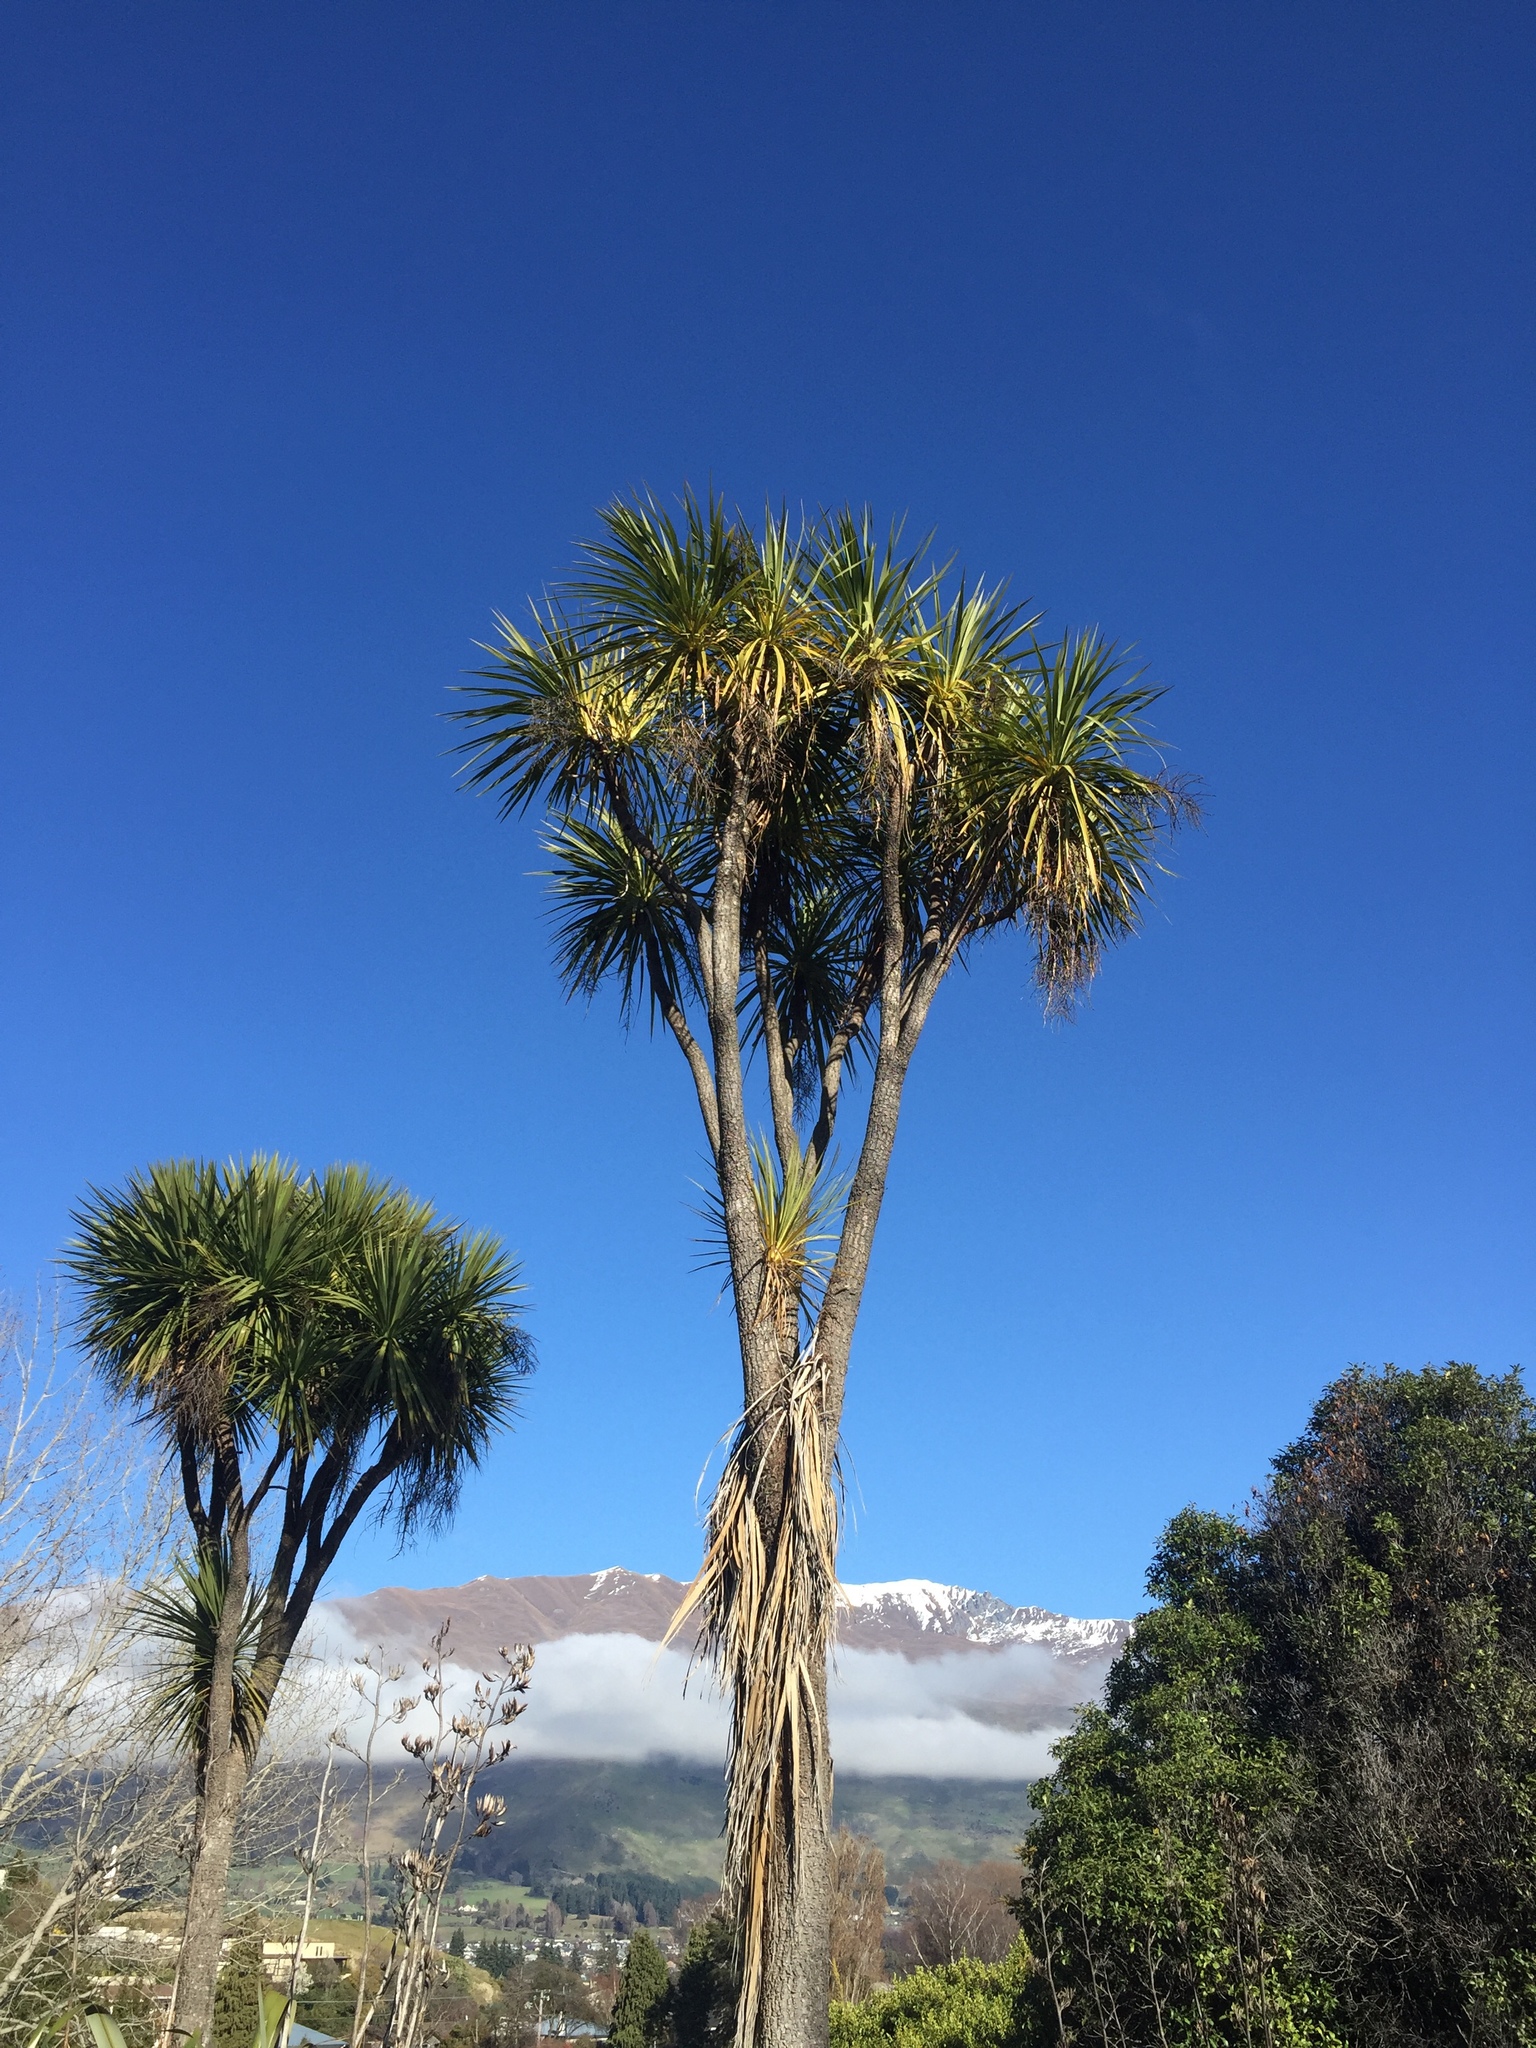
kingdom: Plantae
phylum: Tracheophyta
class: Liliopsida
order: Asparagales
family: Asparagaceae
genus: Cordyline
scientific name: Cordyline australis
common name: Cabbage-palm
